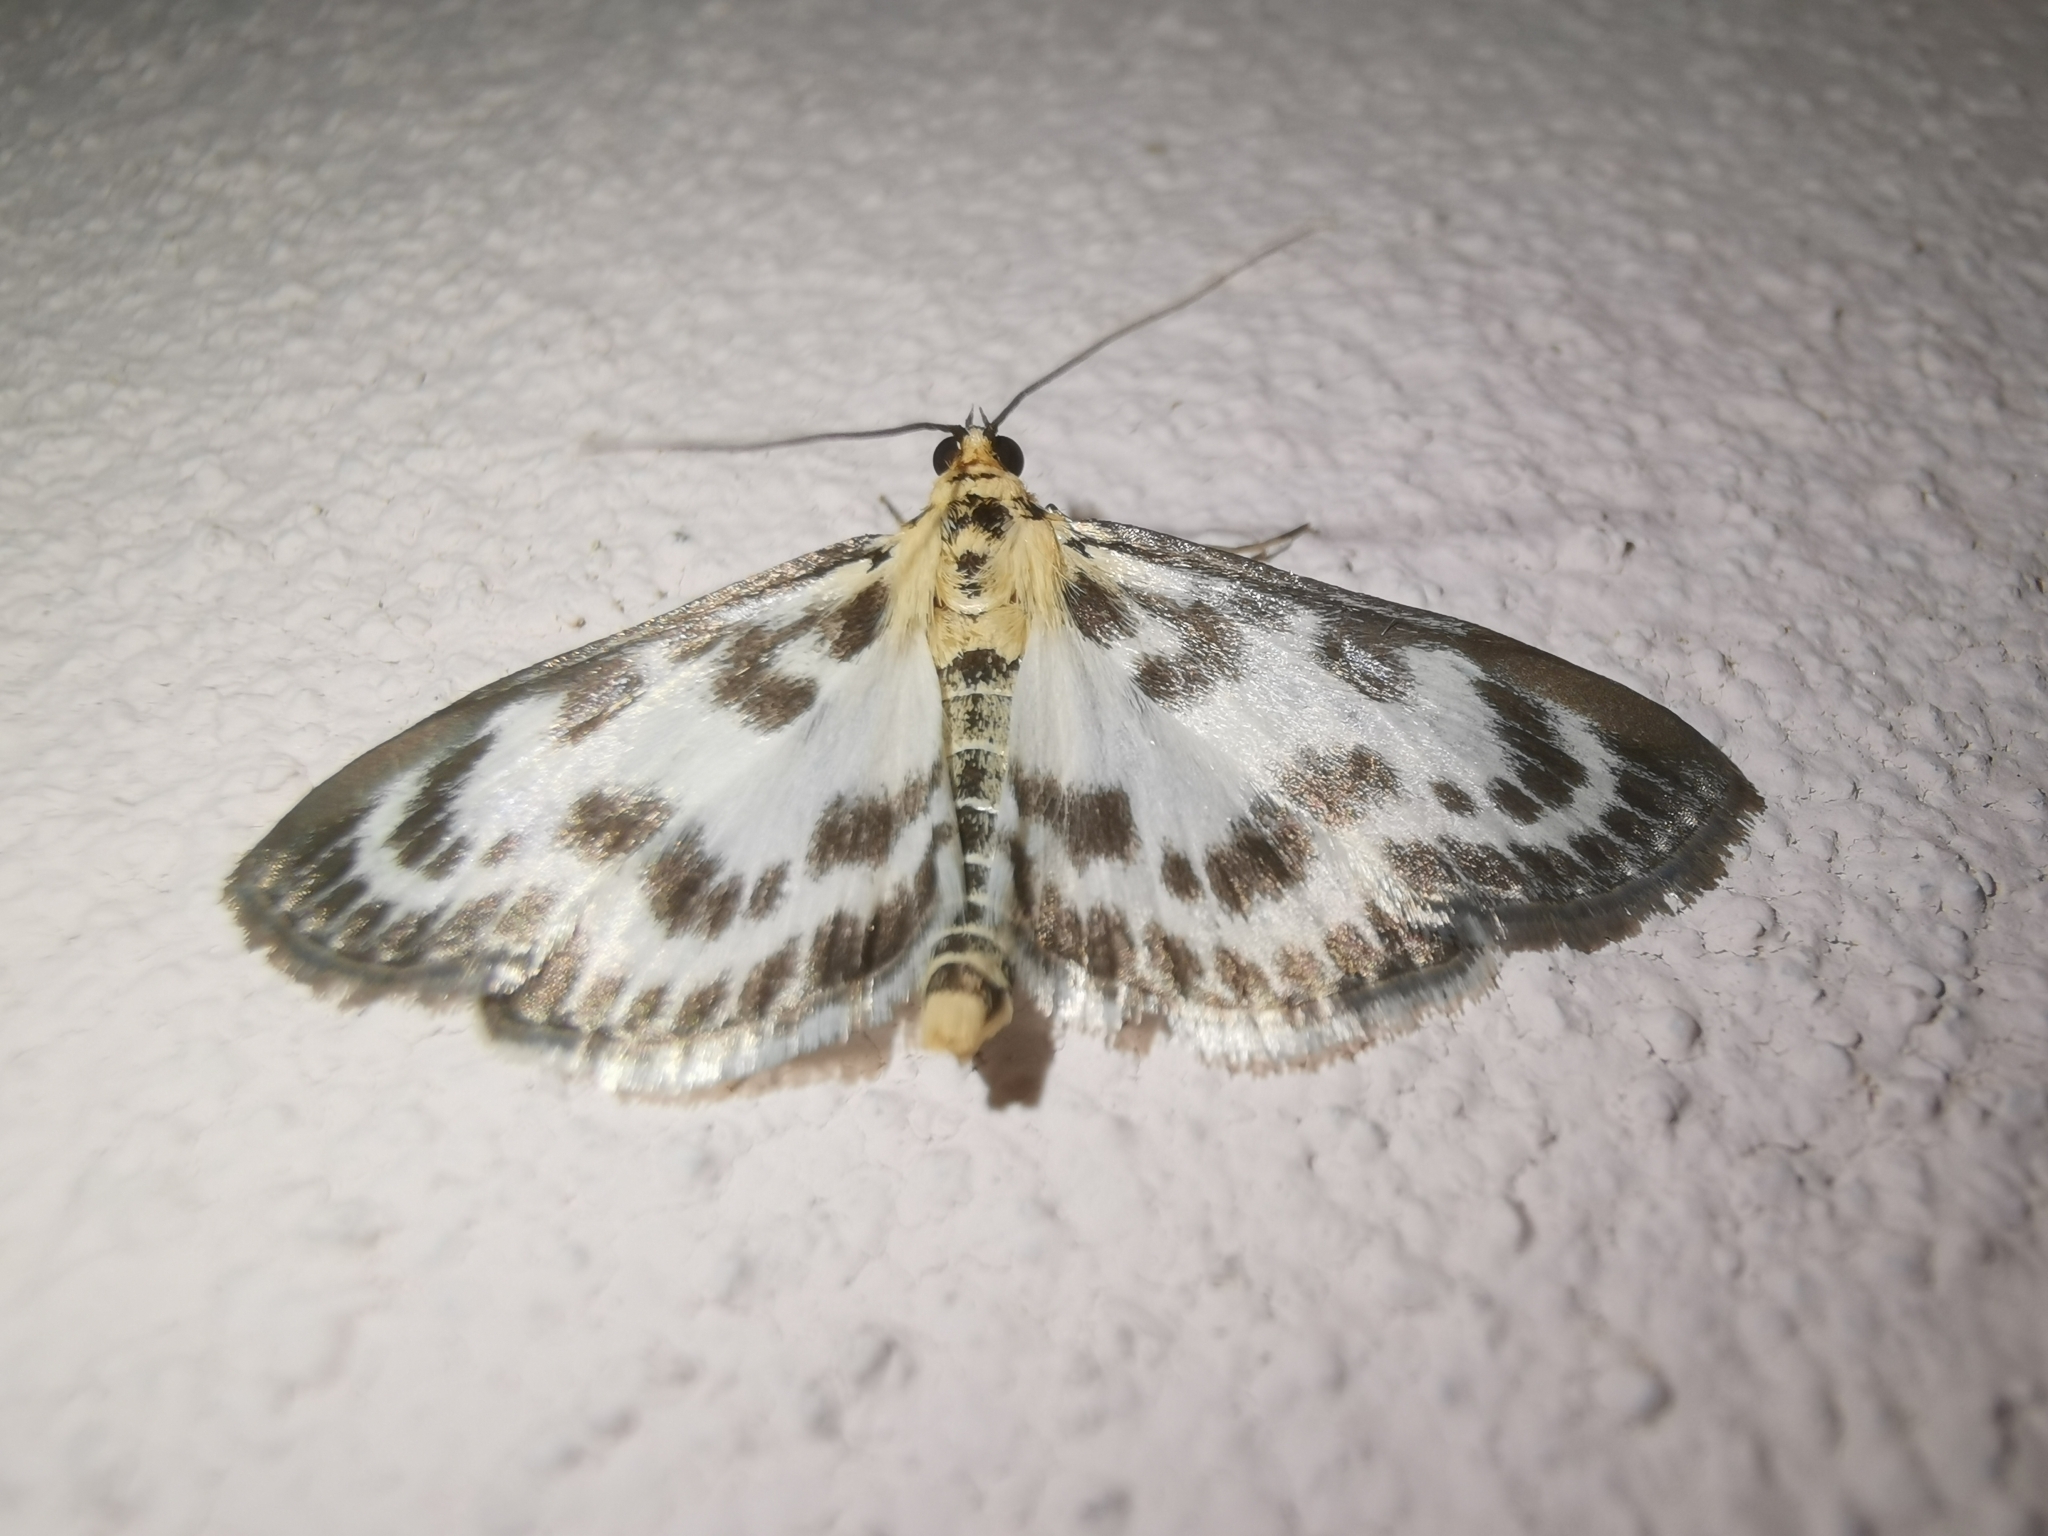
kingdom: Animalia
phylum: Arthropoda
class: Insecta
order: Lepidoptera
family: Crambidae
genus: Anania
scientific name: Anania hortulata
